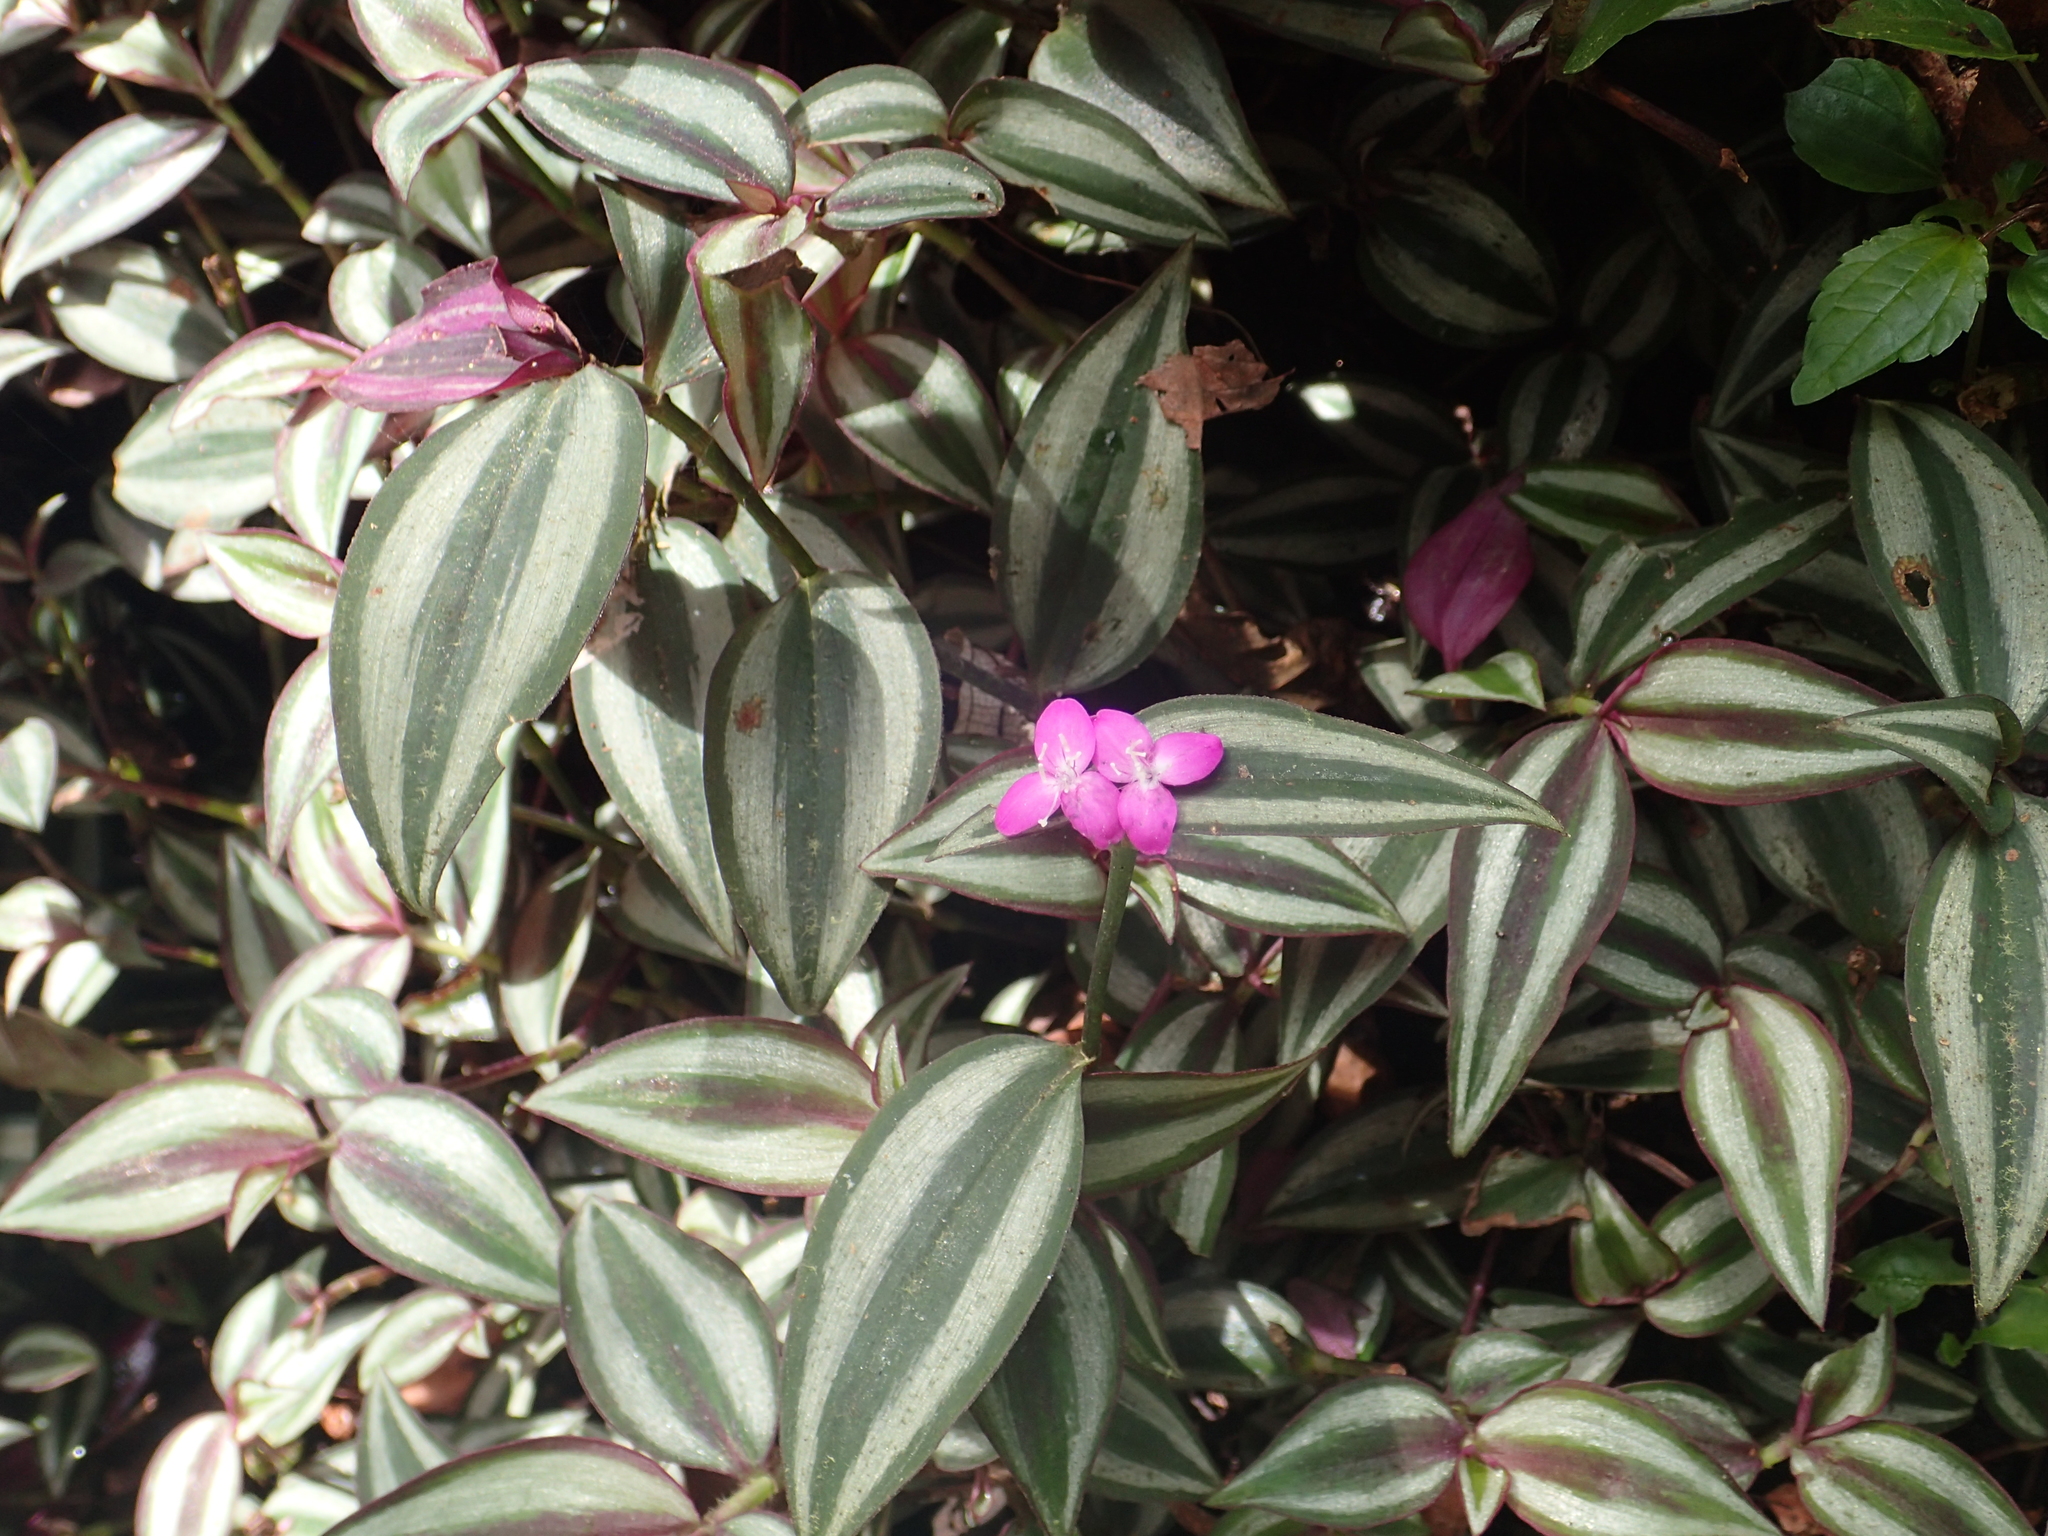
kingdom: Plantae
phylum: Tracheophyta
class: Liliopsida
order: Commelinales
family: Commelinaceae
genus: Tradescantia
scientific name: Tradescantia zebrina
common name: Inchplant
